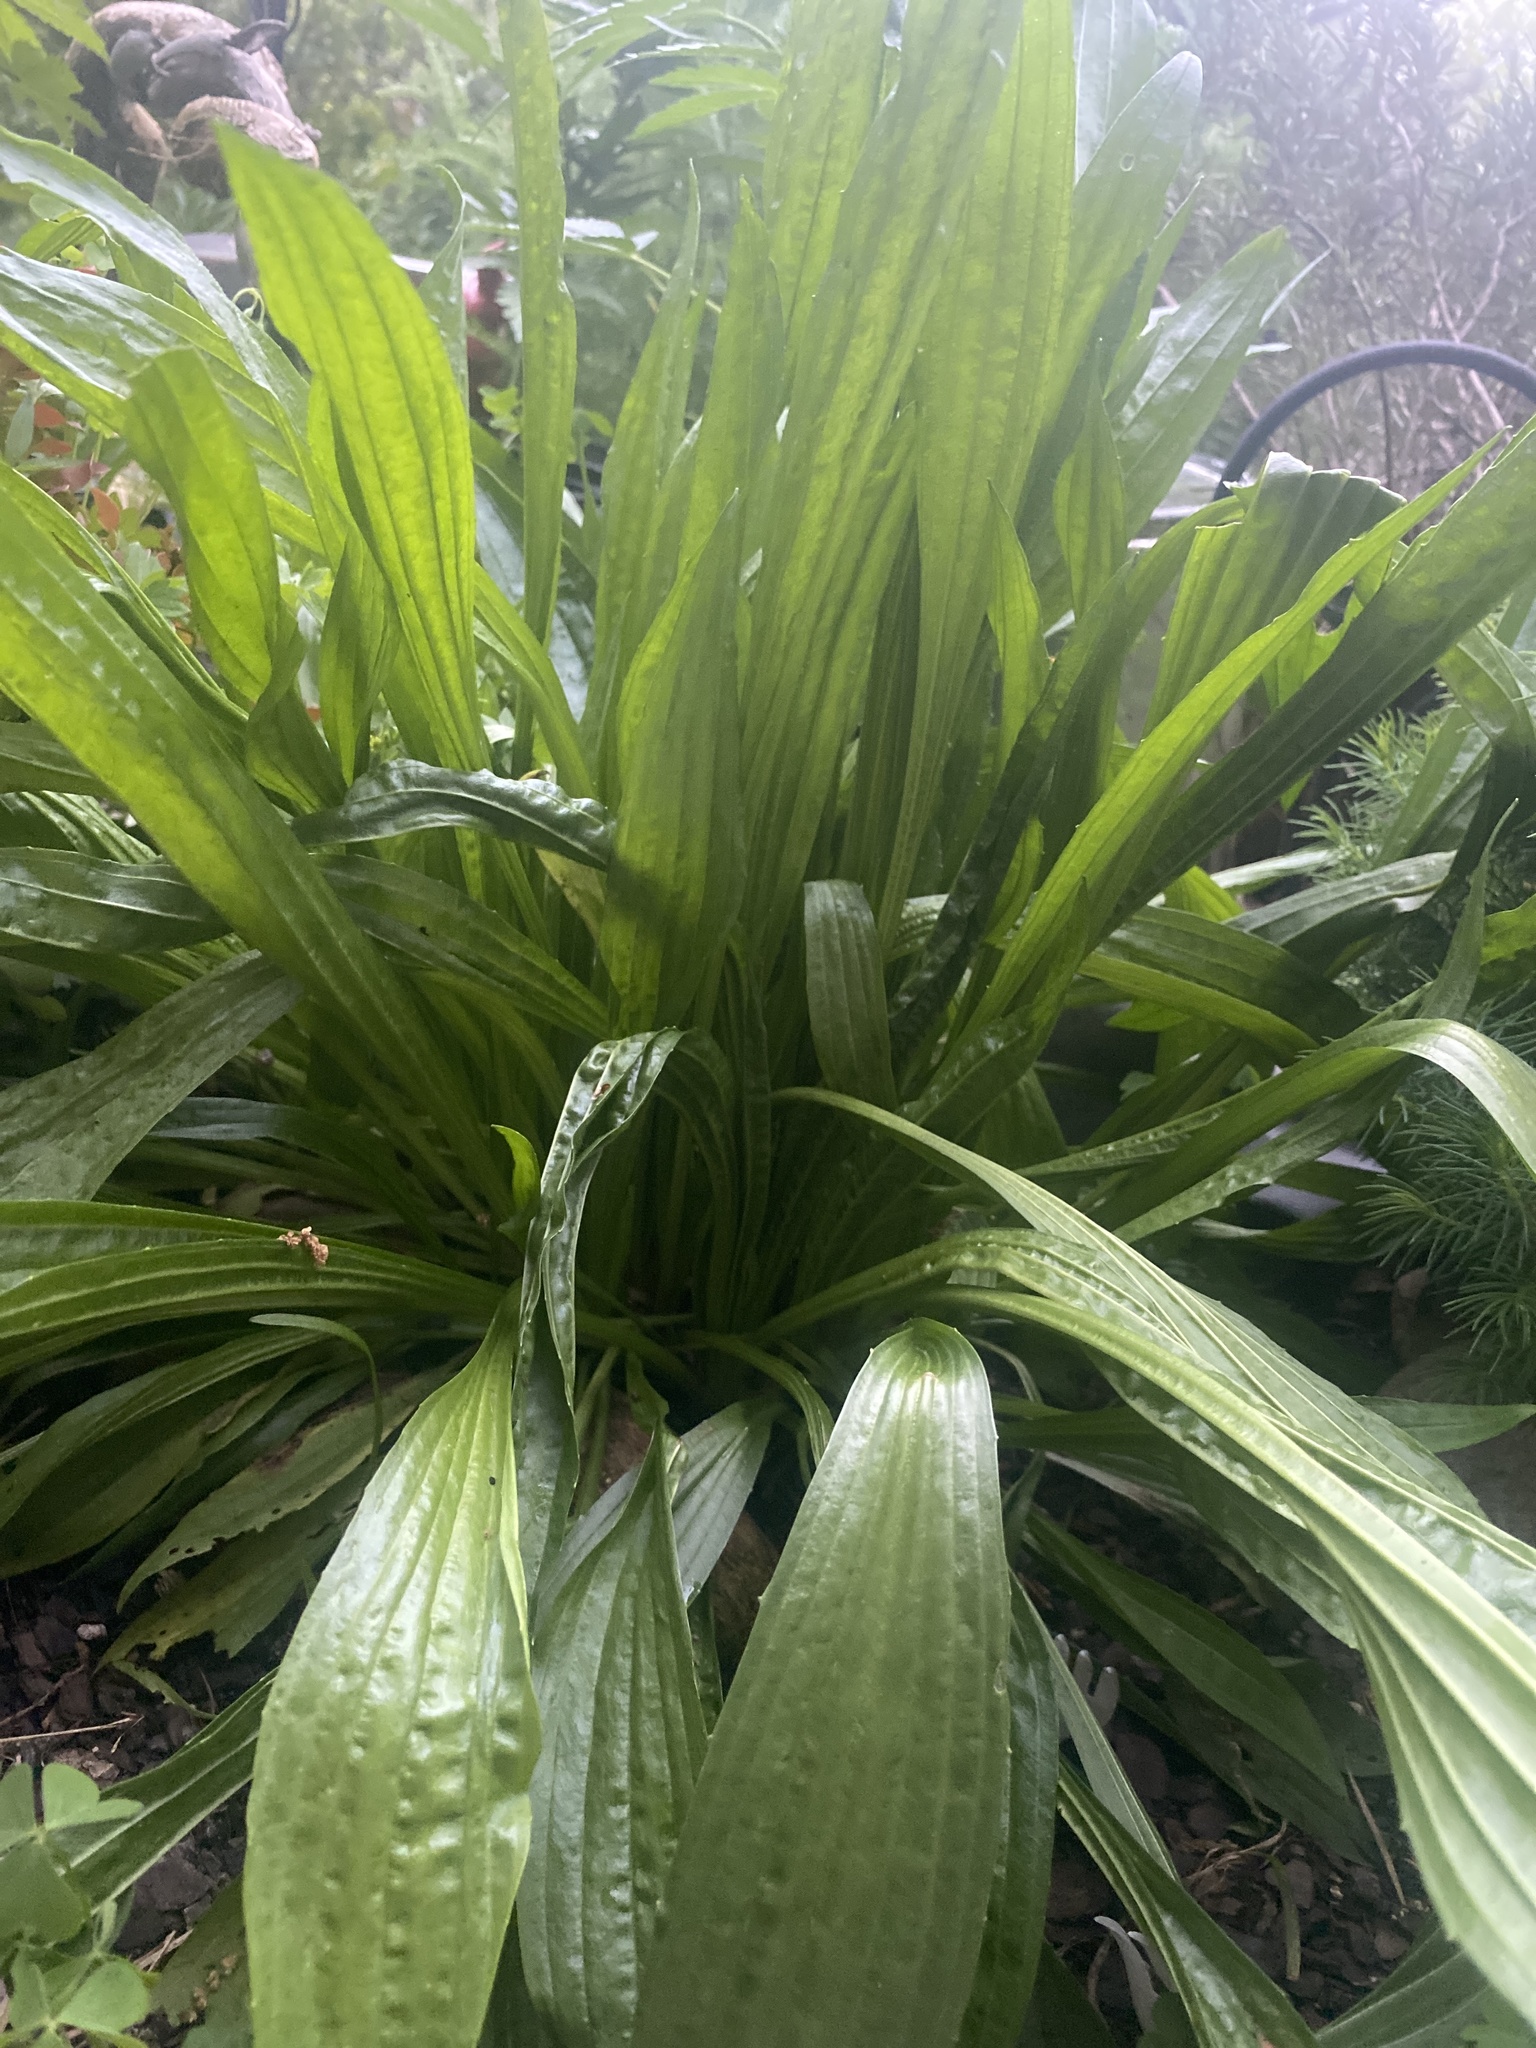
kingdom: Plantae
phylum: Tracheophyta
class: Magnoliopsida
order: Lamiales
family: Plantaginaceae
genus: Plantago
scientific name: Plantago lanceolata
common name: Ribwort plantain
